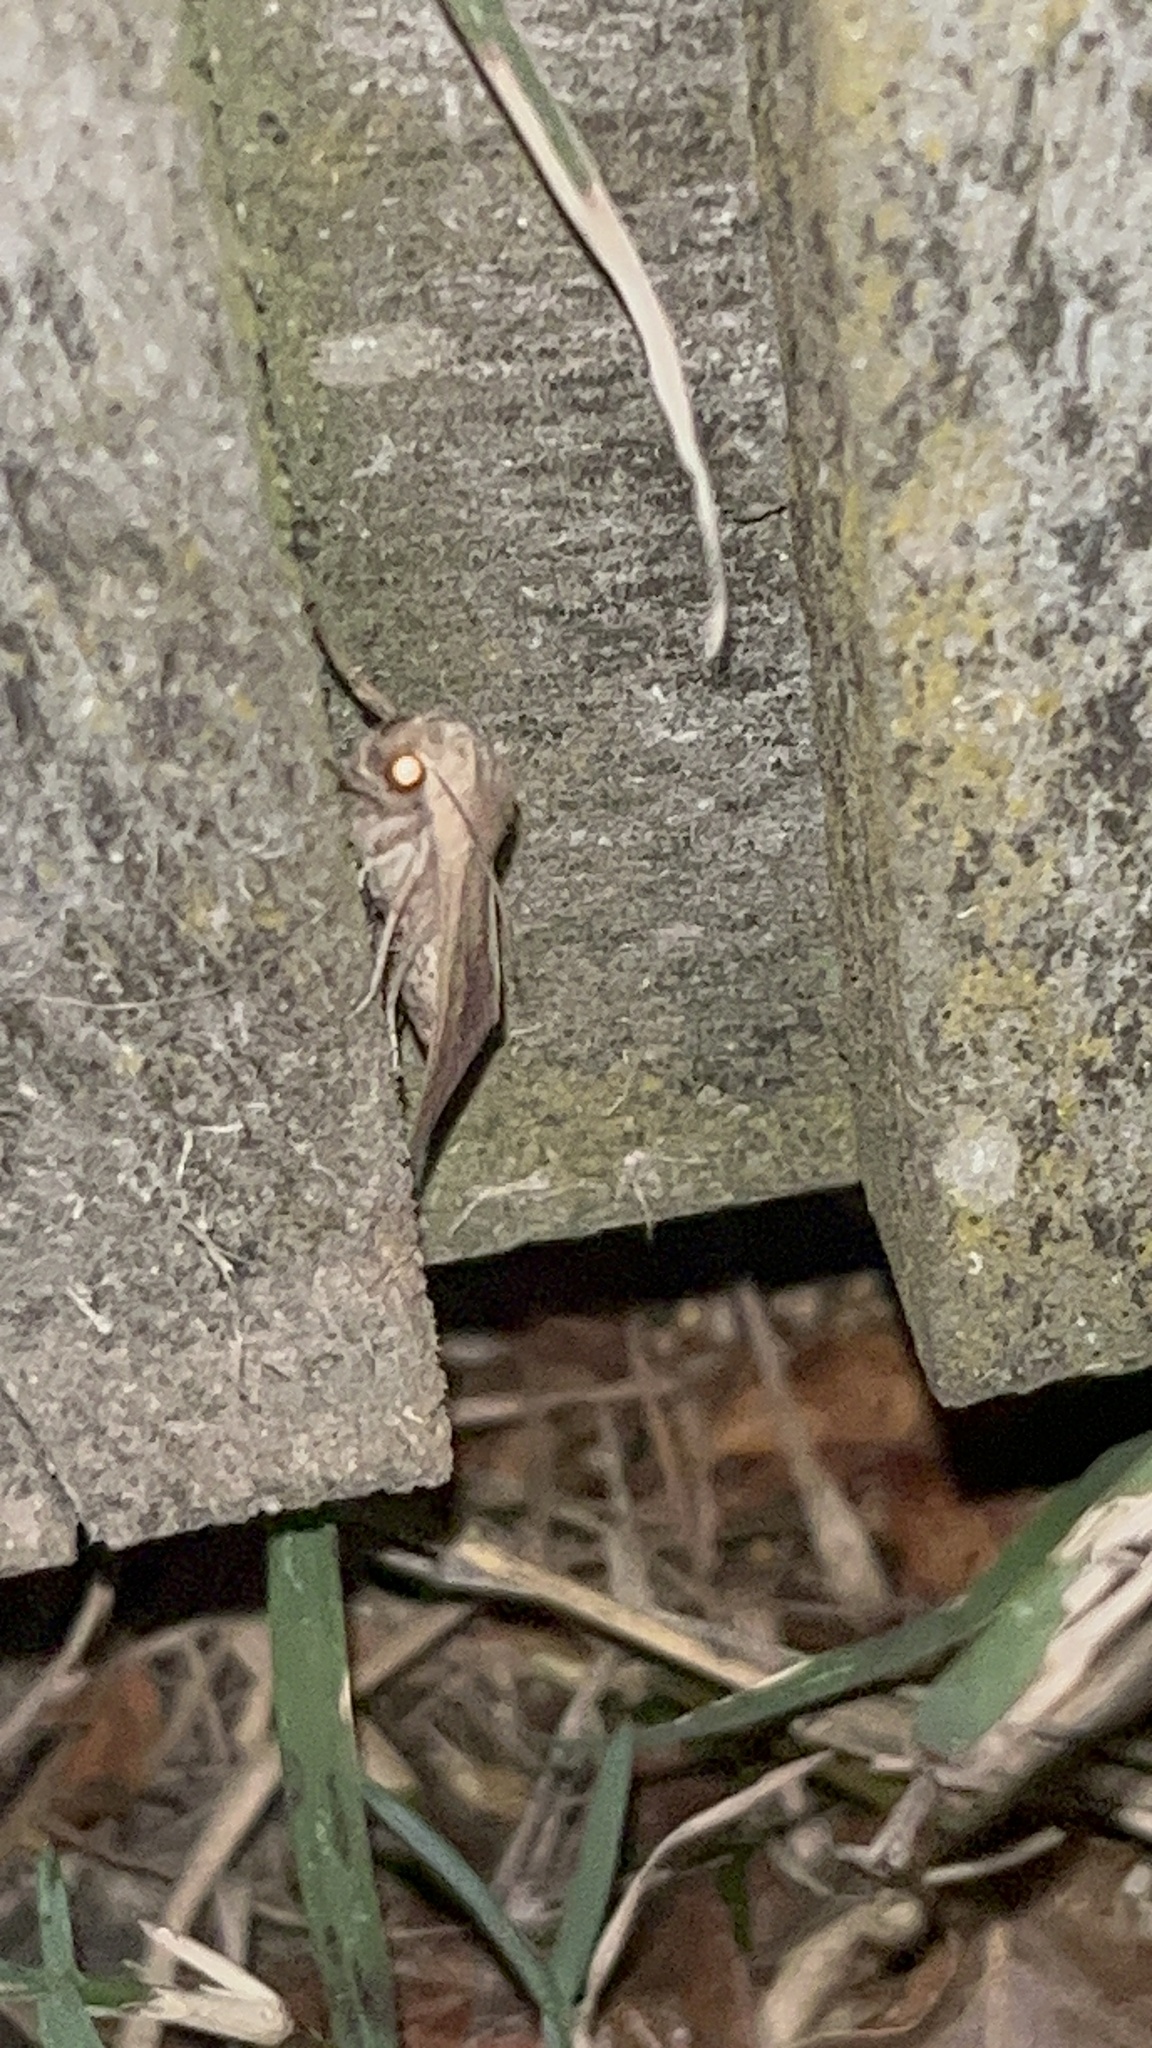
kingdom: Animalia
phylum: Arthropoda
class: Insecta
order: Lepidoptera
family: Noctuidae
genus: Mythimna
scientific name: Mythimna separata
